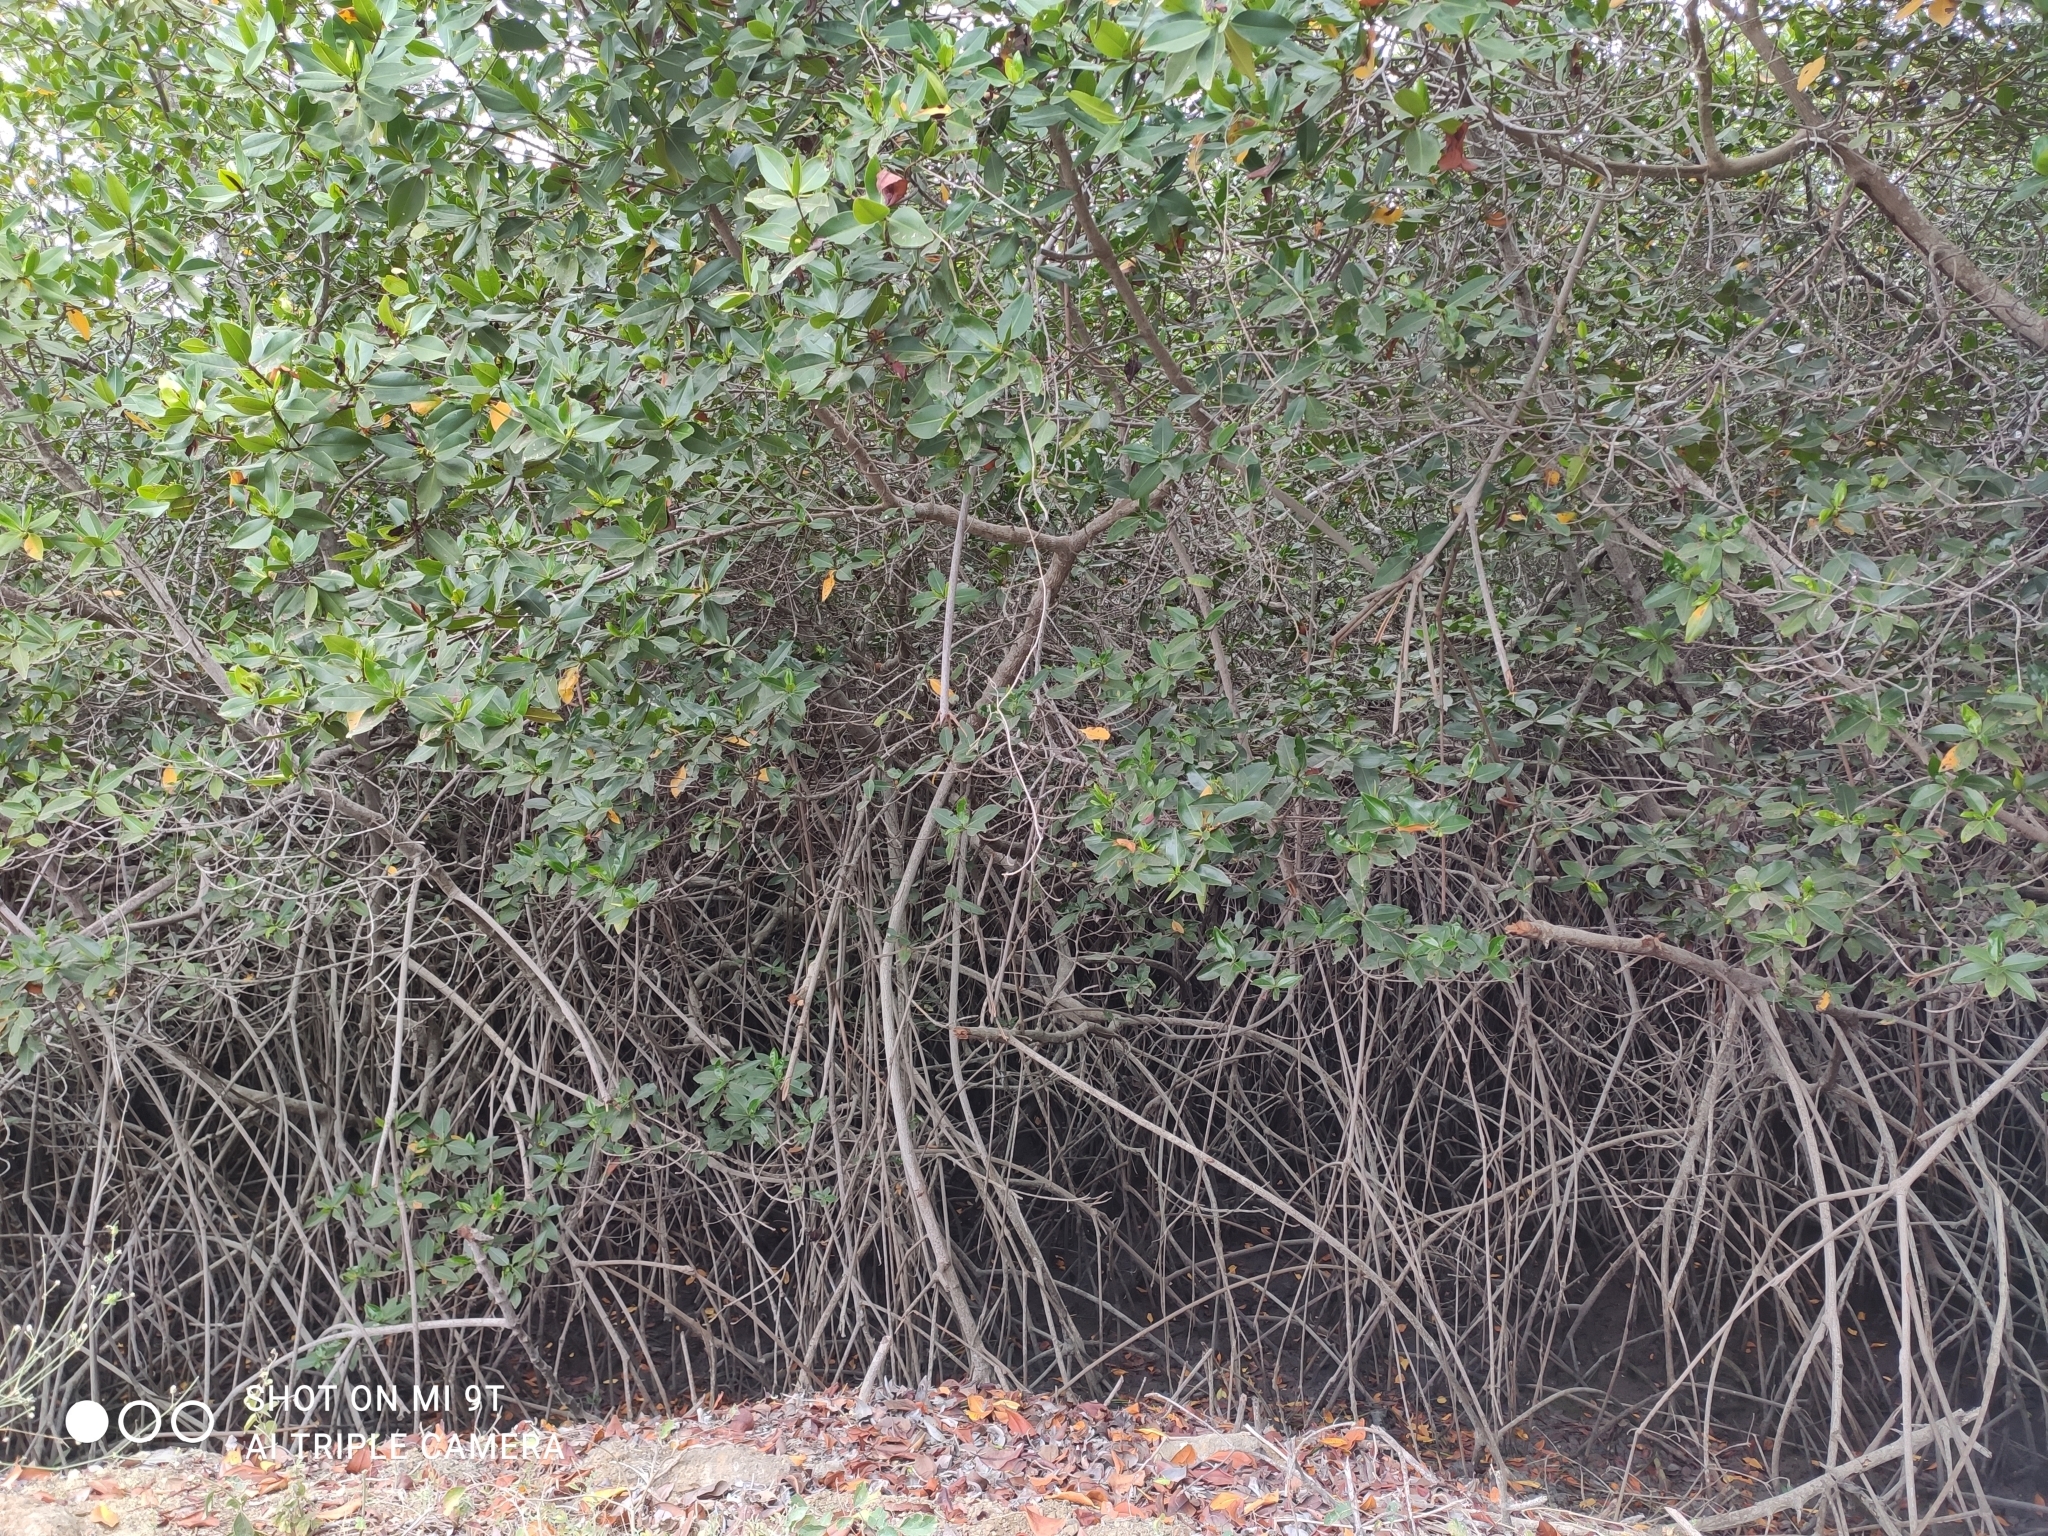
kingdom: Plantae
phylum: Tracheophyta
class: Magnoliopsida
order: Malpighiales
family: Rhizophoraceae
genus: Rhizophora
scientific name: Rhizophora mangle
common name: Red mangrove
